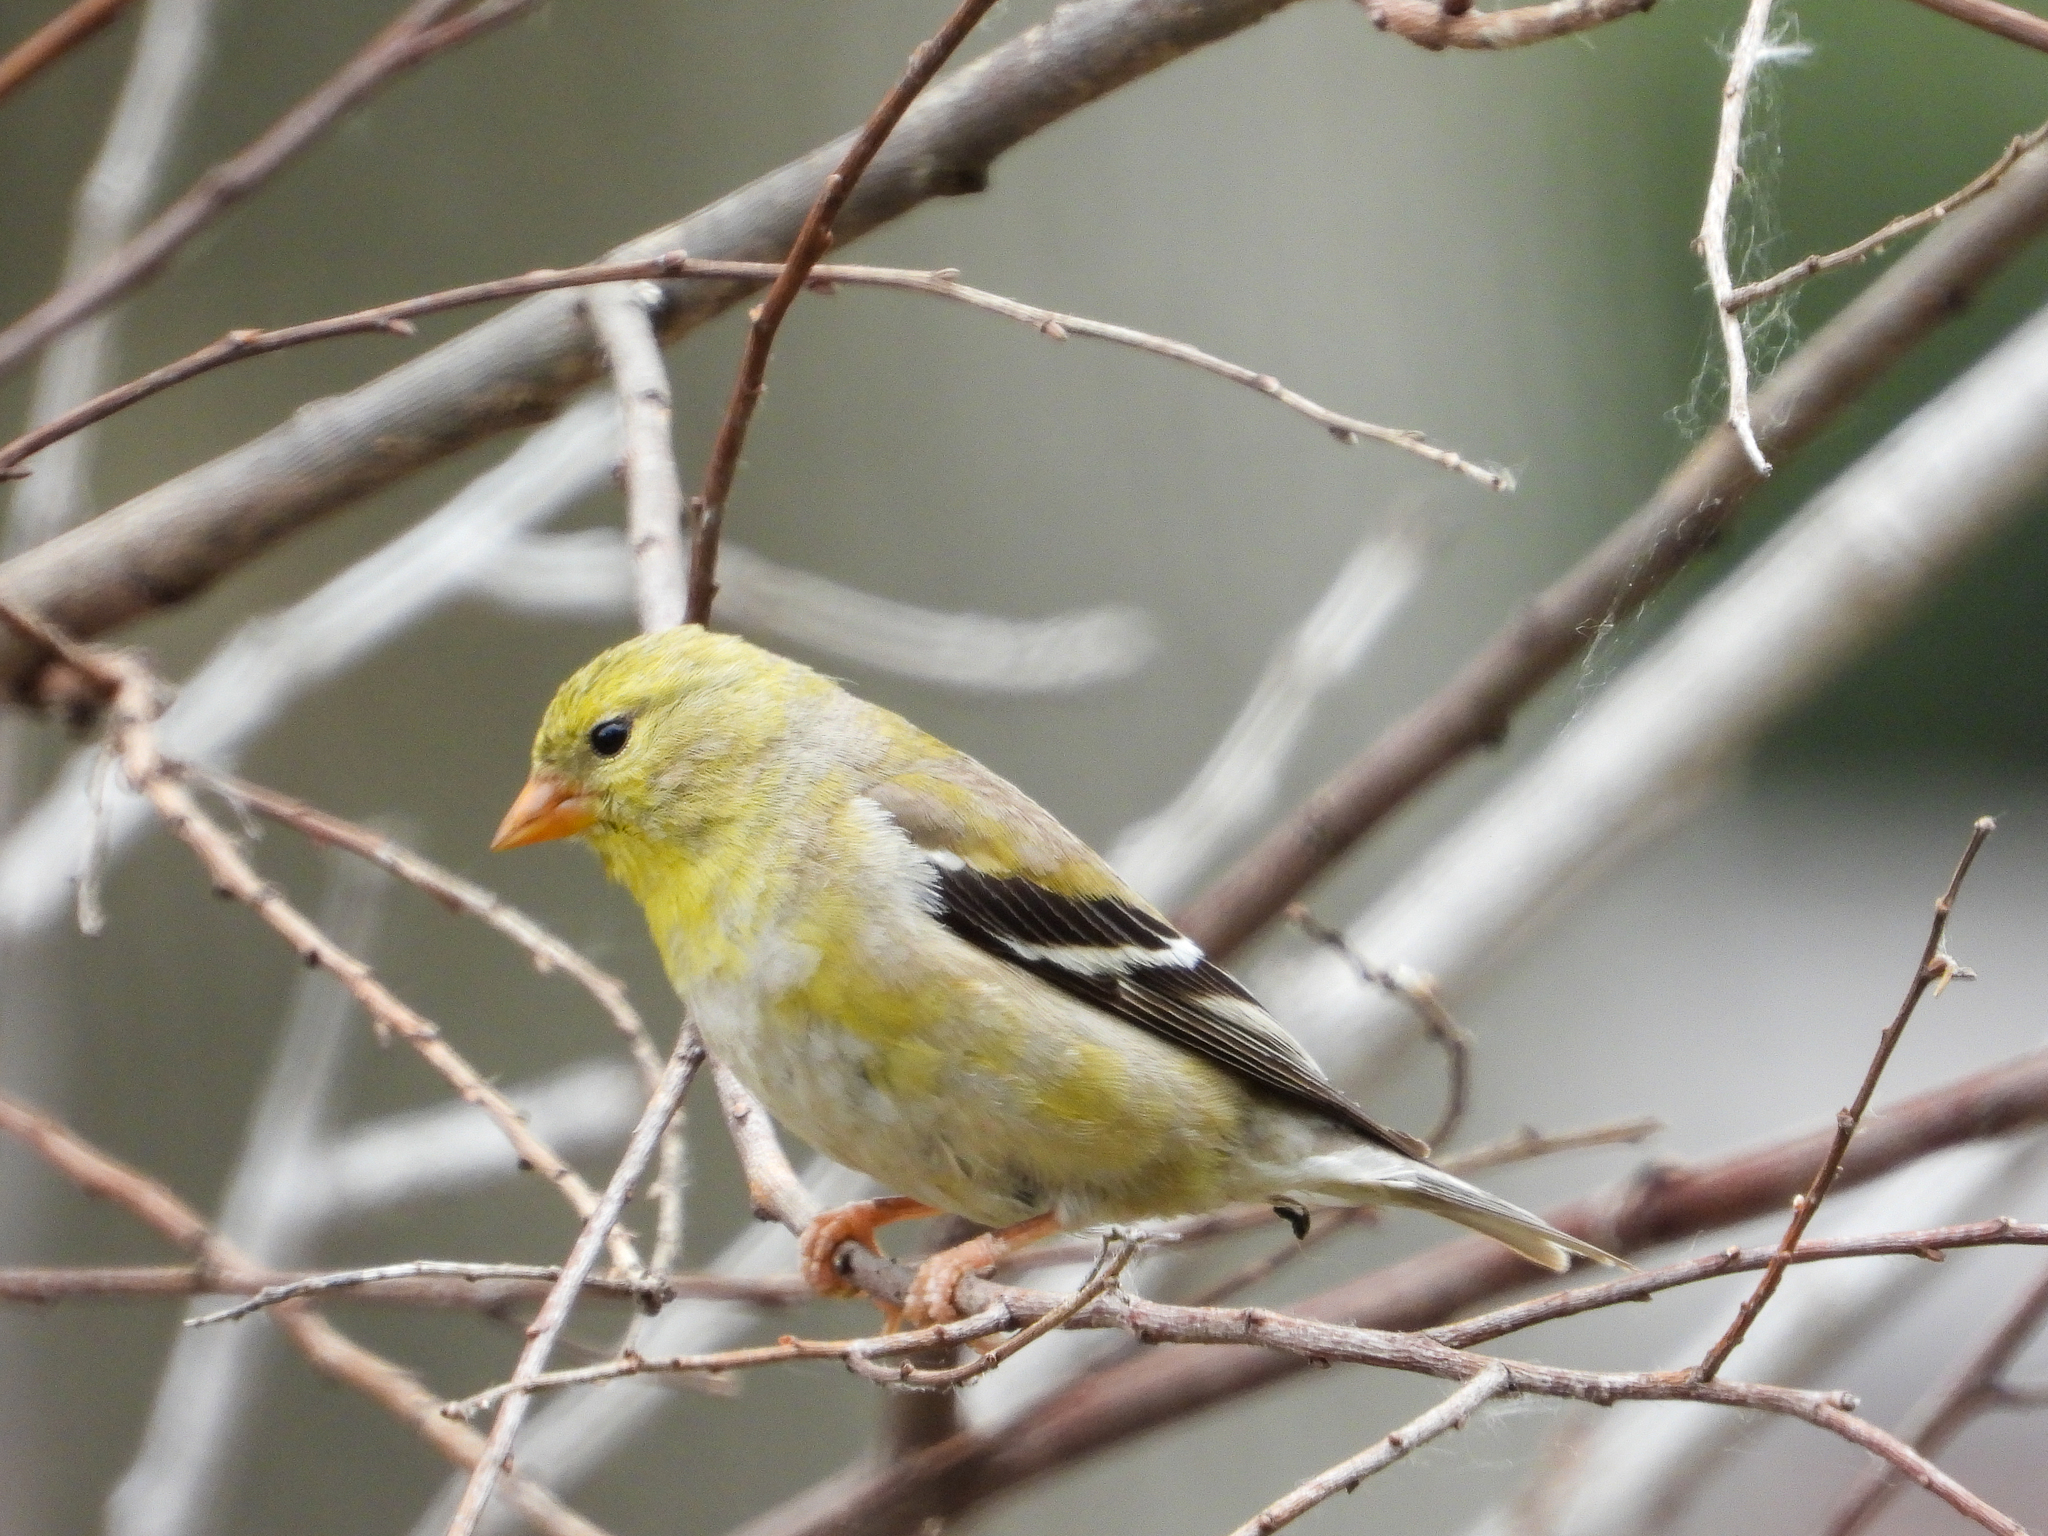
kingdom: Animalia
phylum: Chordata
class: Aves
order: Passeriformes
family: Fringillidae
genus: Spinus
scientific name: Spinus tristis
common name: American goldfinch
